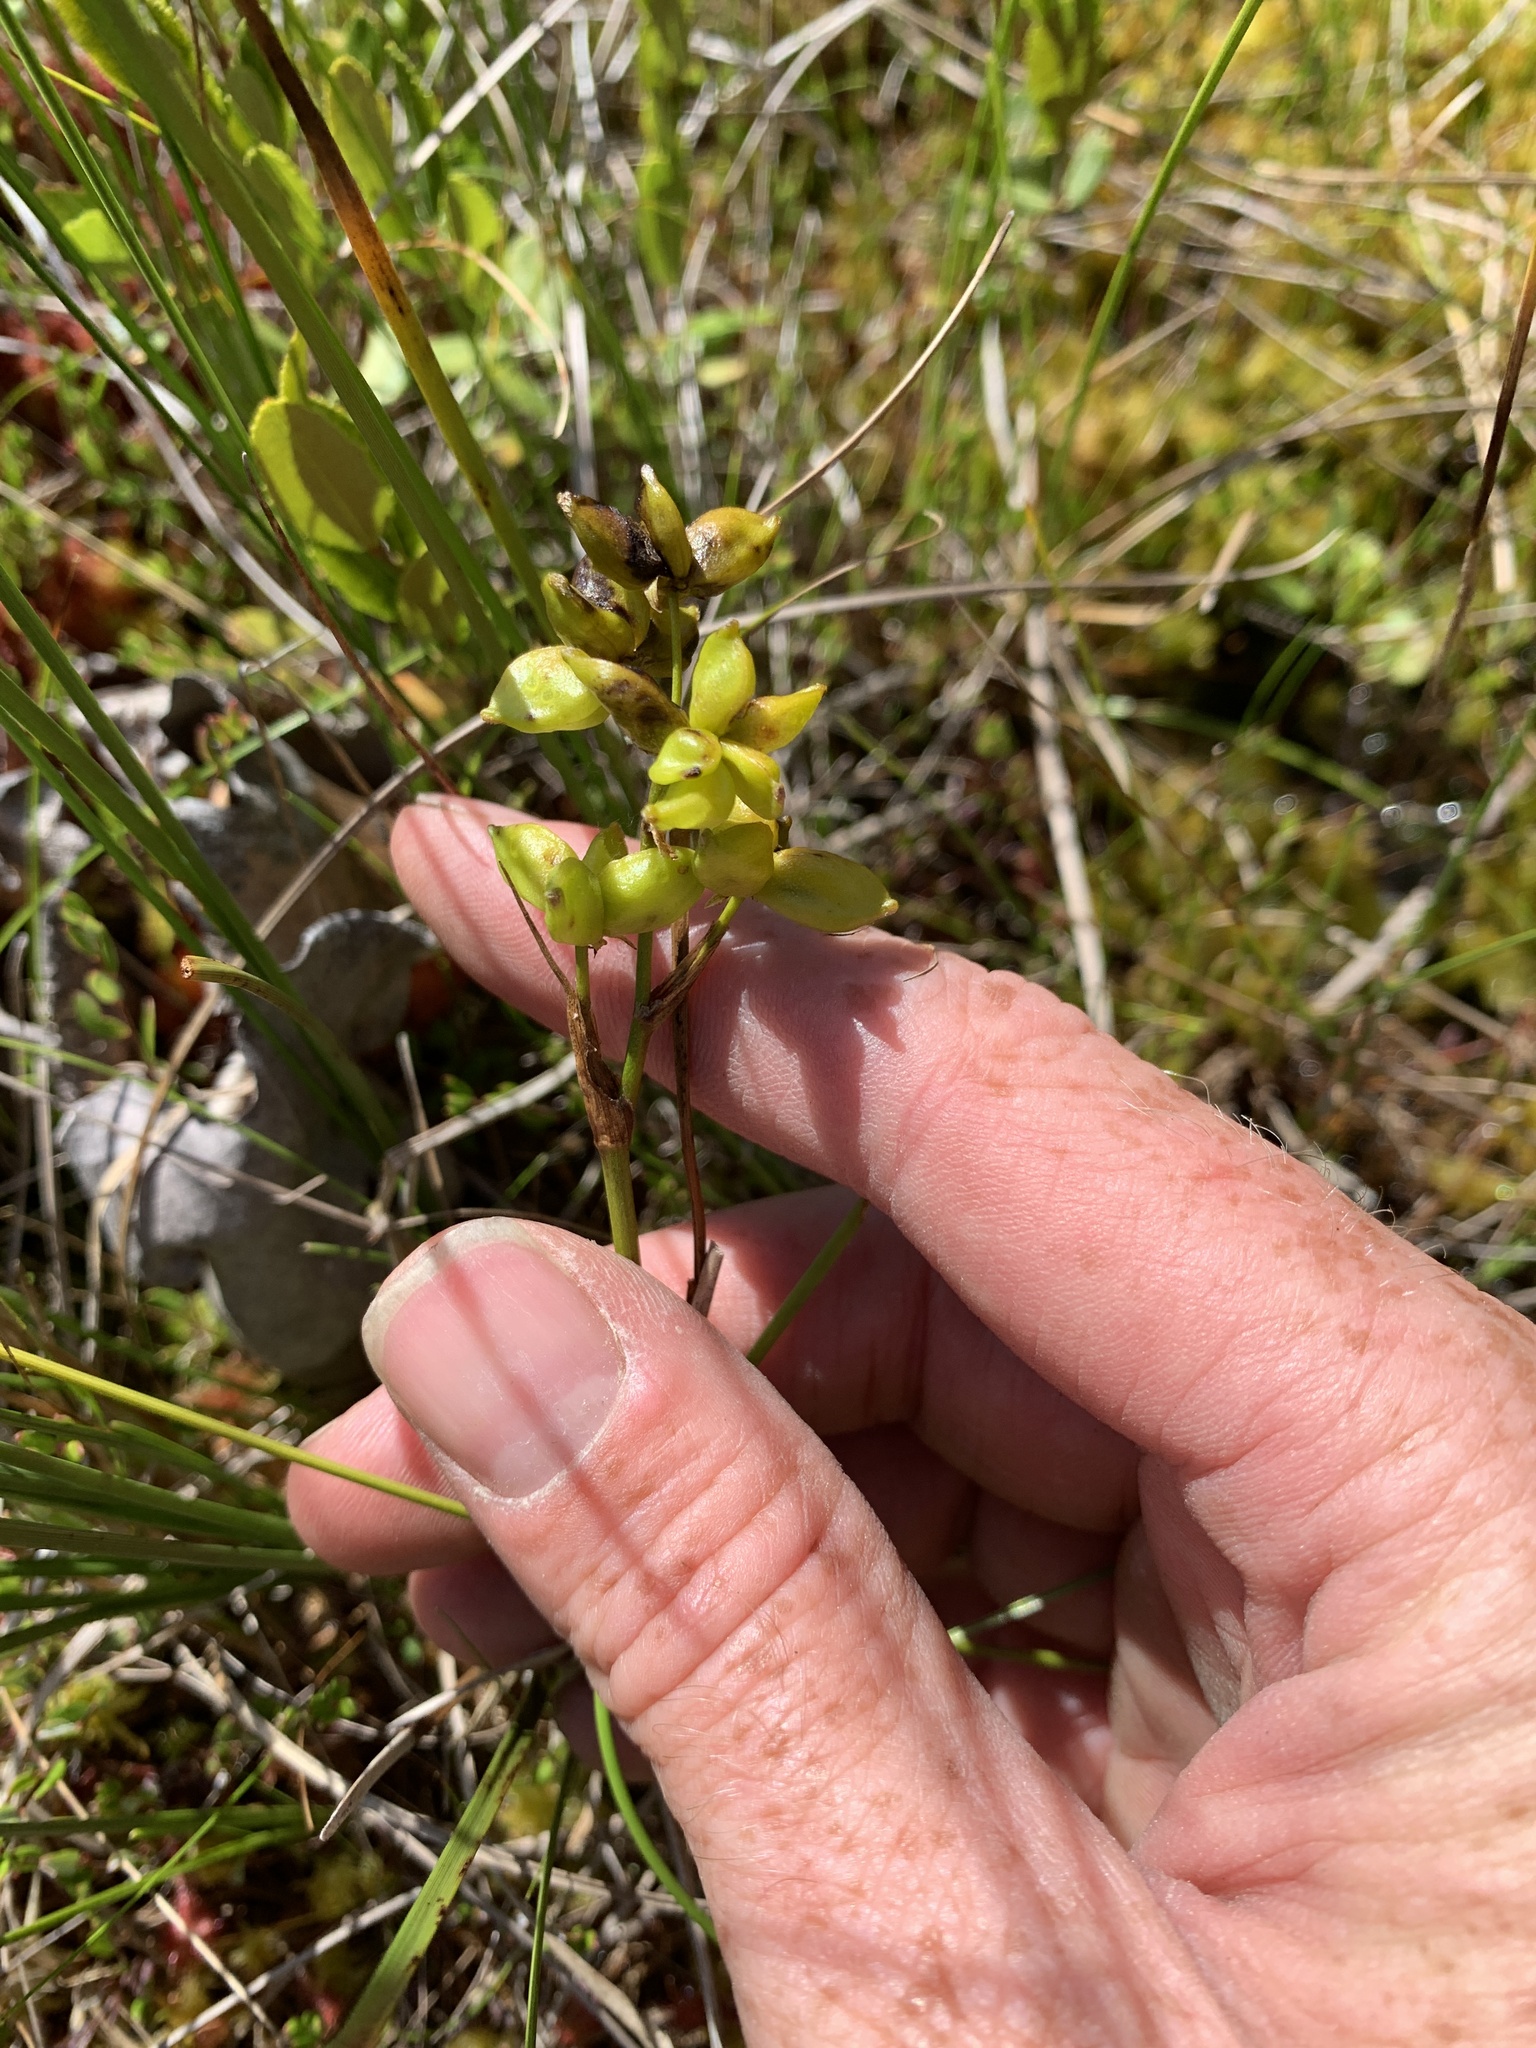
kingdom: Plantae
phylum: Tracheophyta
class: Liliopsida
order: Alismatales
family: Scheuchzeriaceae
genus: Scheuchzeria
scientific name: Scheuchzeria palustris
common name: Rannoch-rush
